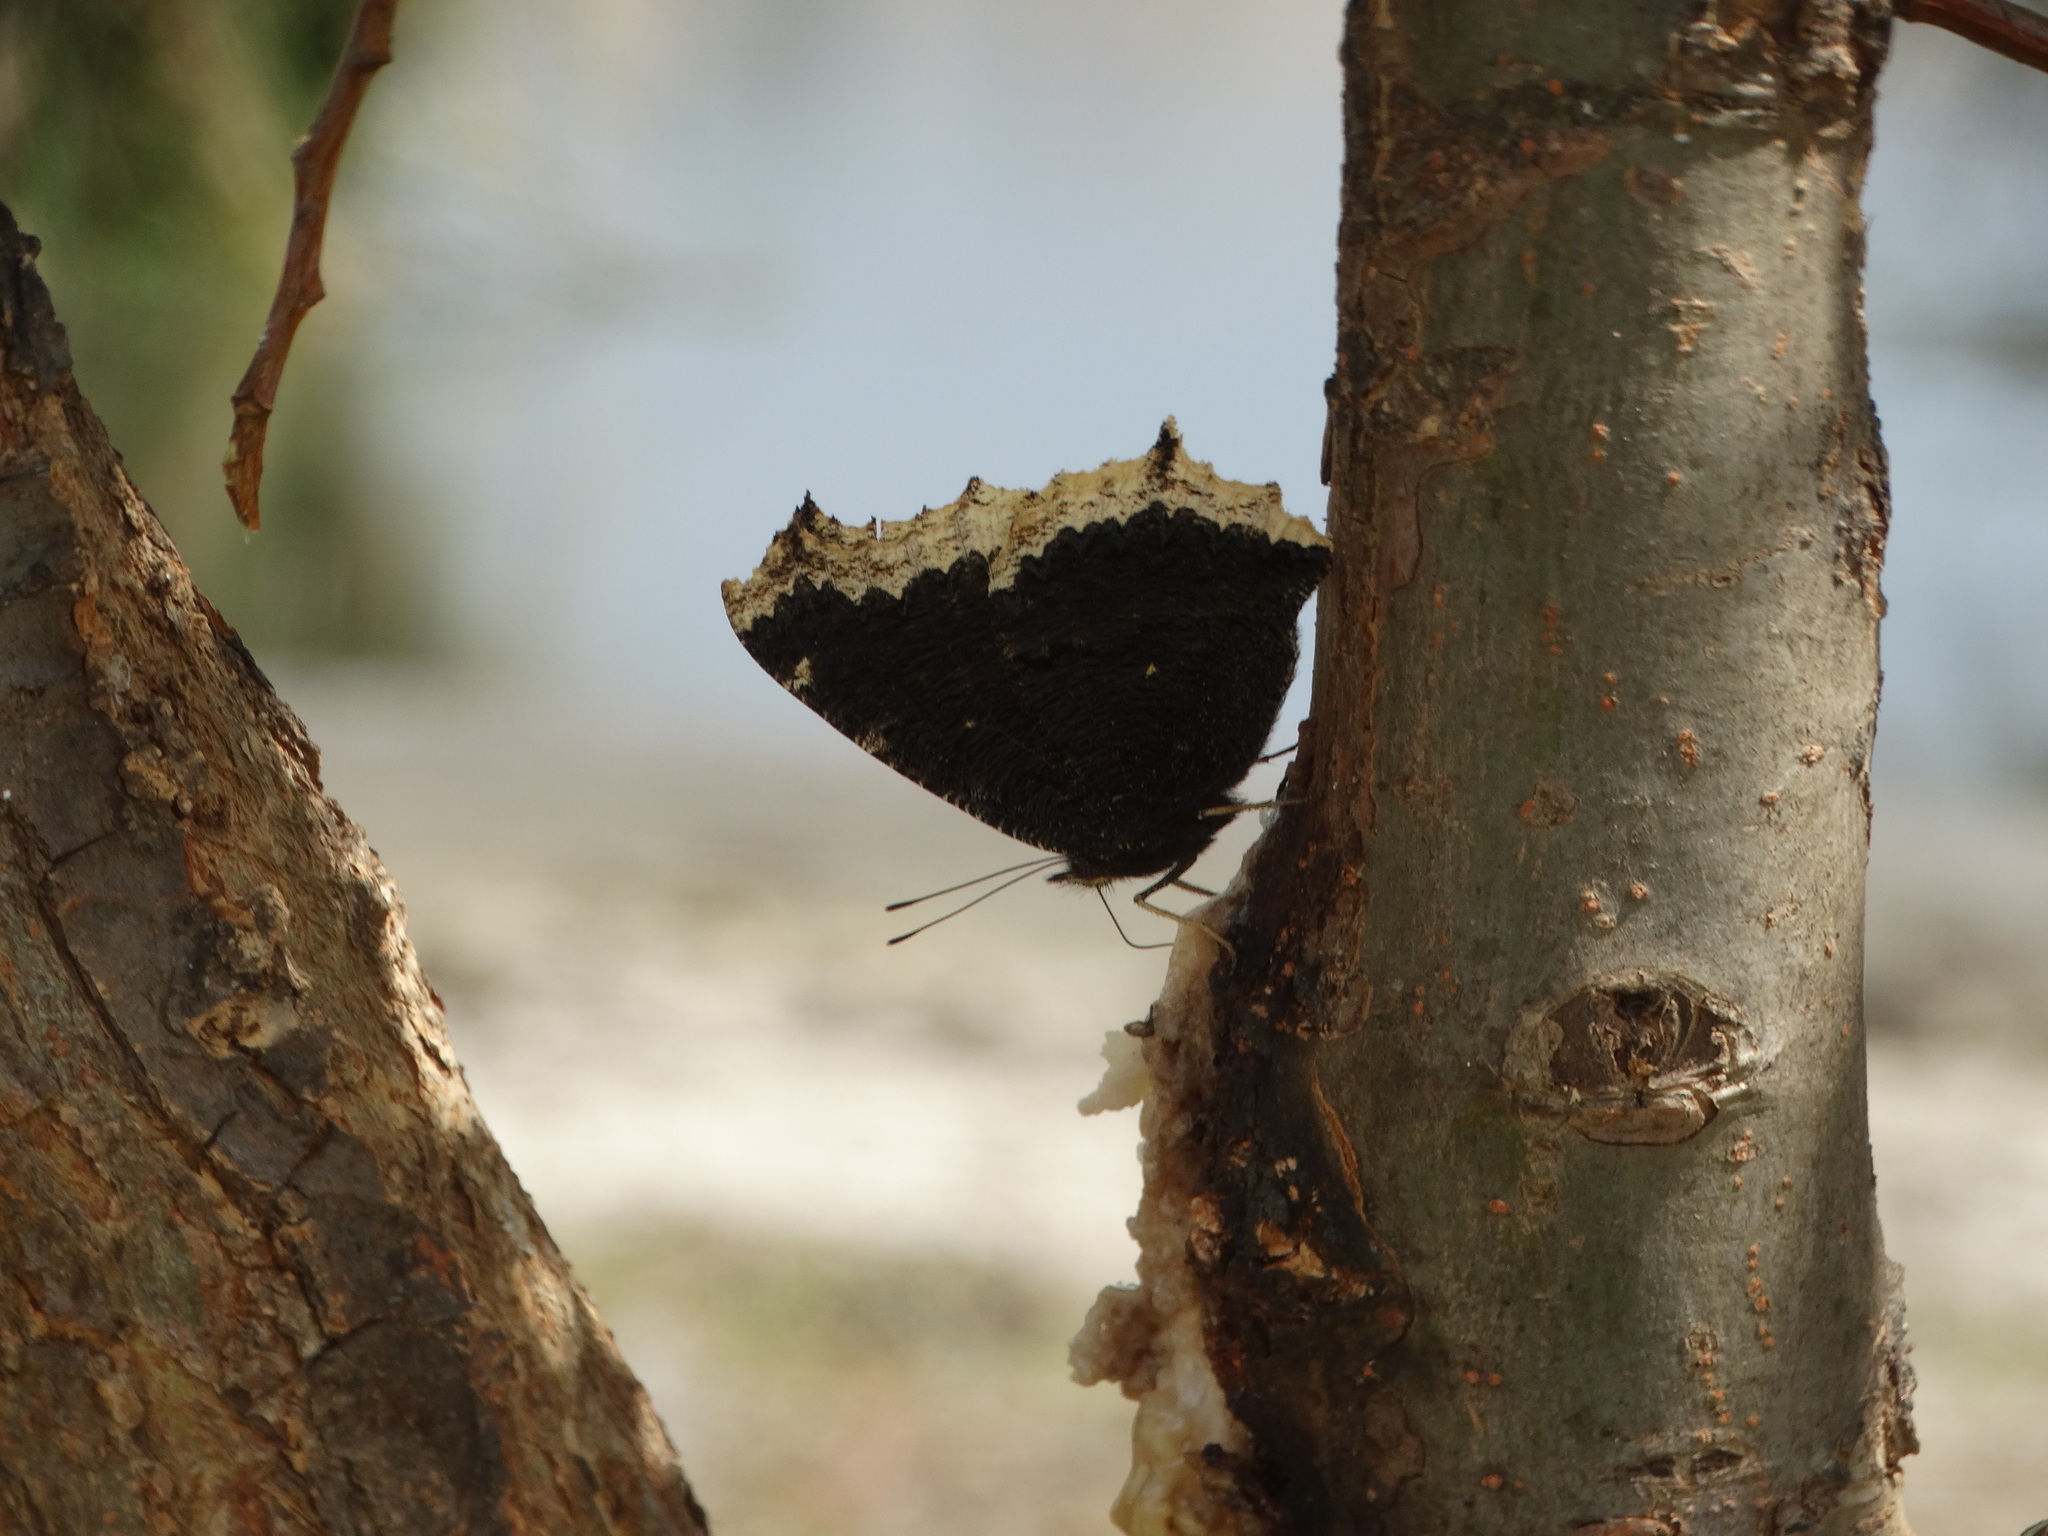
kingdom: Animalia
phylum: Arthropoda
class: Insecta
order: Lepidoptera
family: Nymphalidae
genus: Nymphalis
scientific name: Nymphalis antiopa
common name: Camberwell beauty
